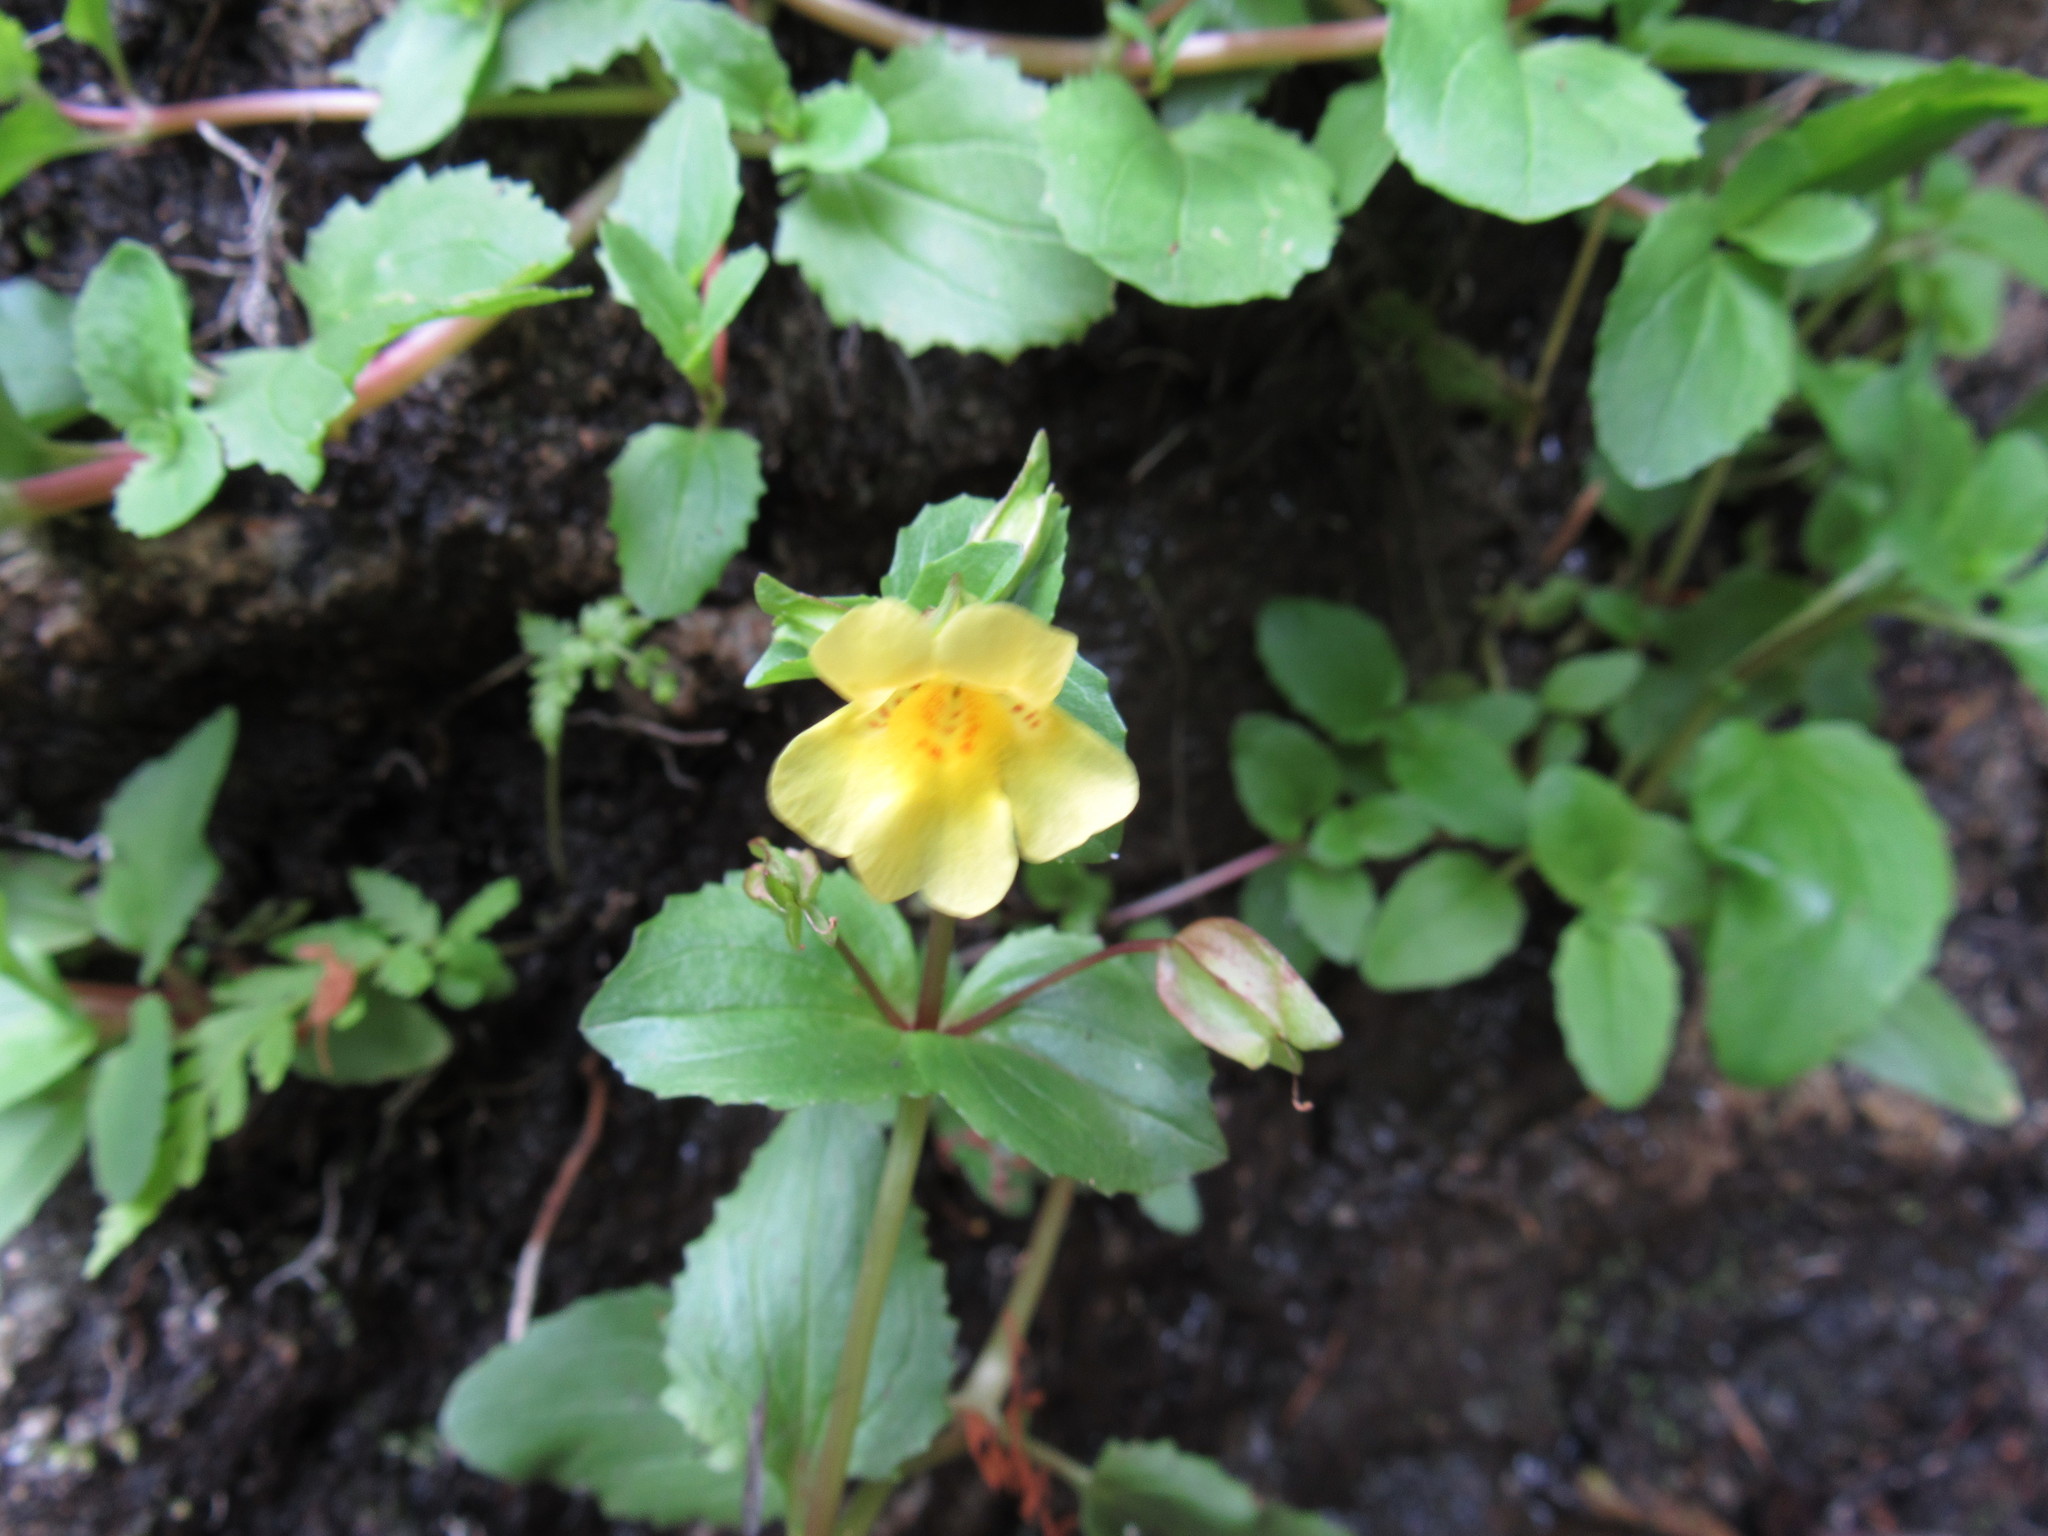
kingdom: Plantae
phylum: Tracheophyta
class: Magnoliopsida
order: Lamiales
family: Phrymaceae
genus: Erythranthe
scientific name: Erythranthe glabrata
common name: Round-leaved monkeyflower
